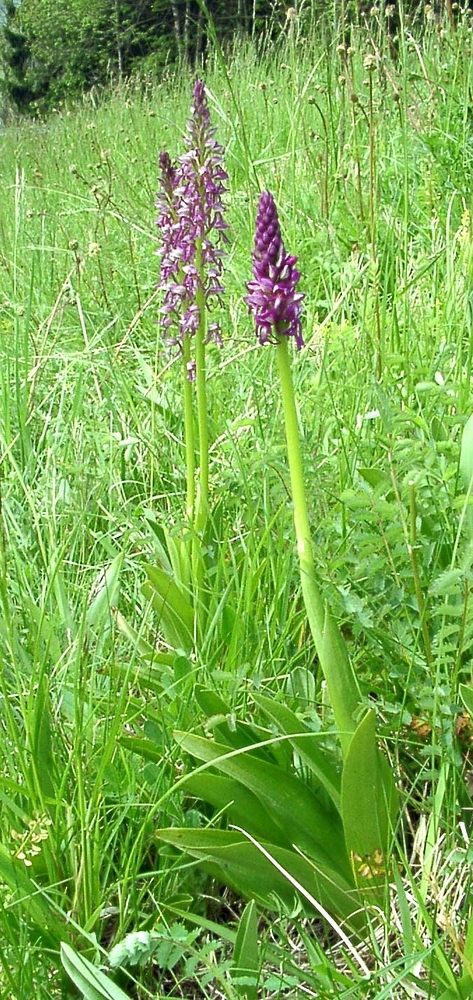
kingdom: Plantae
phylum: Tracheophyta
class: Liliopsida
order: Asparagales
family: Orchidaceae
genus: Orchis
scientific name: Orchis spuria
